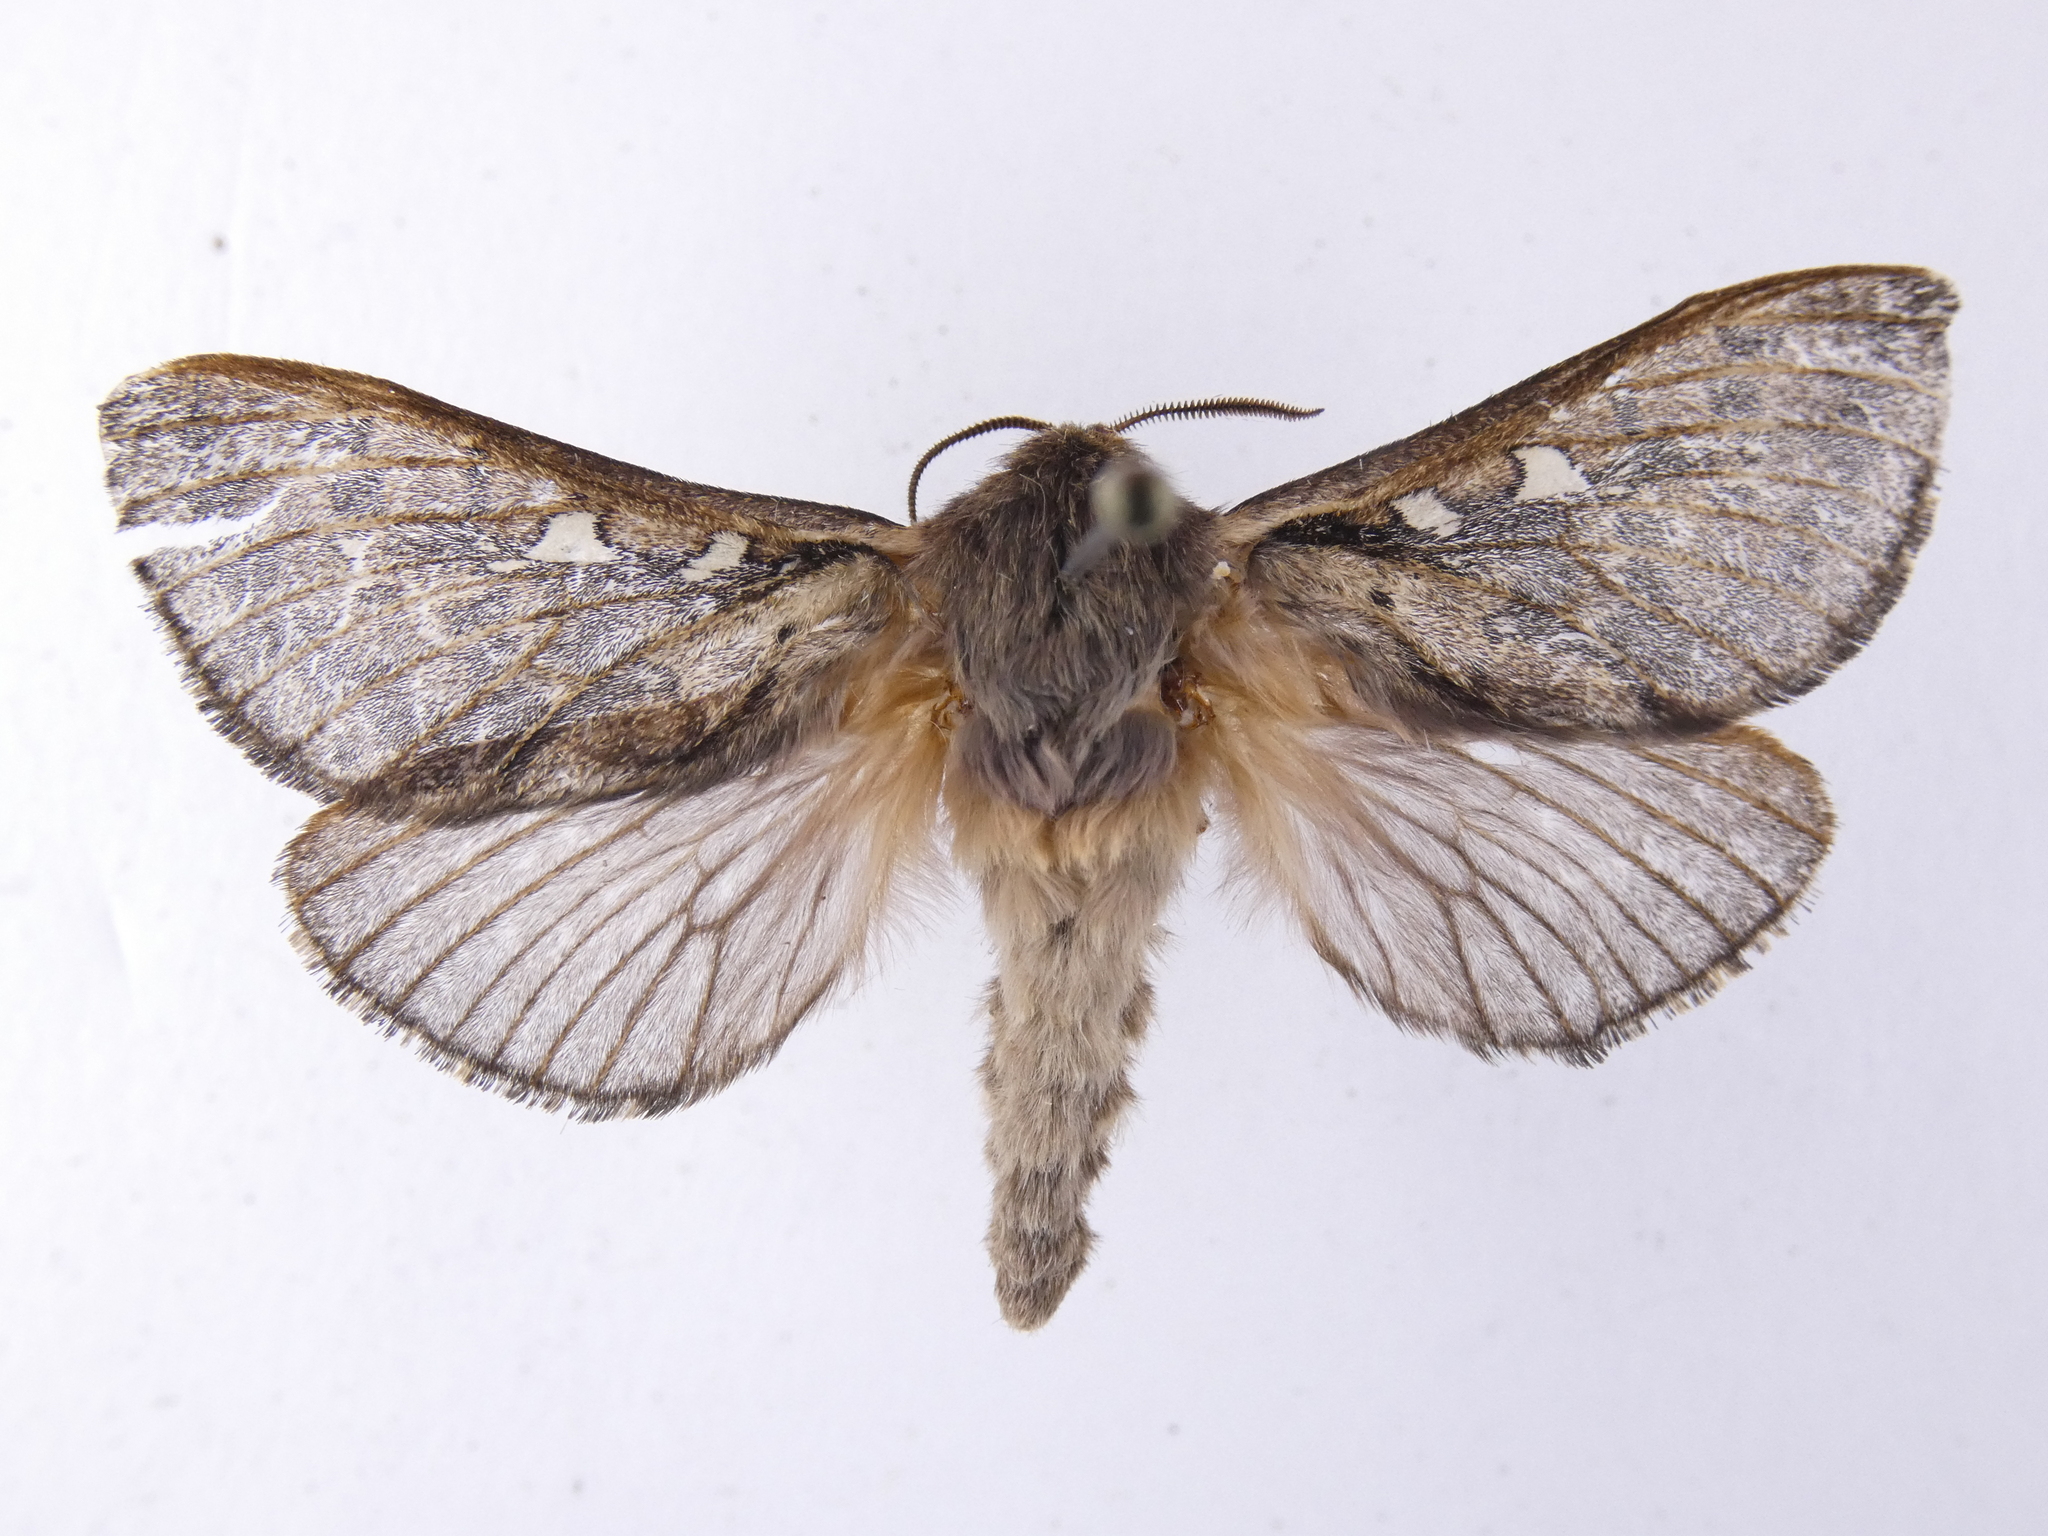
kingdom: Animalia
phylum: Arthropoda
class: Insecta
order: Lepidoptera
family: Hepialidae
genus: Wiseana
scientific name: Wiseana cervinata
